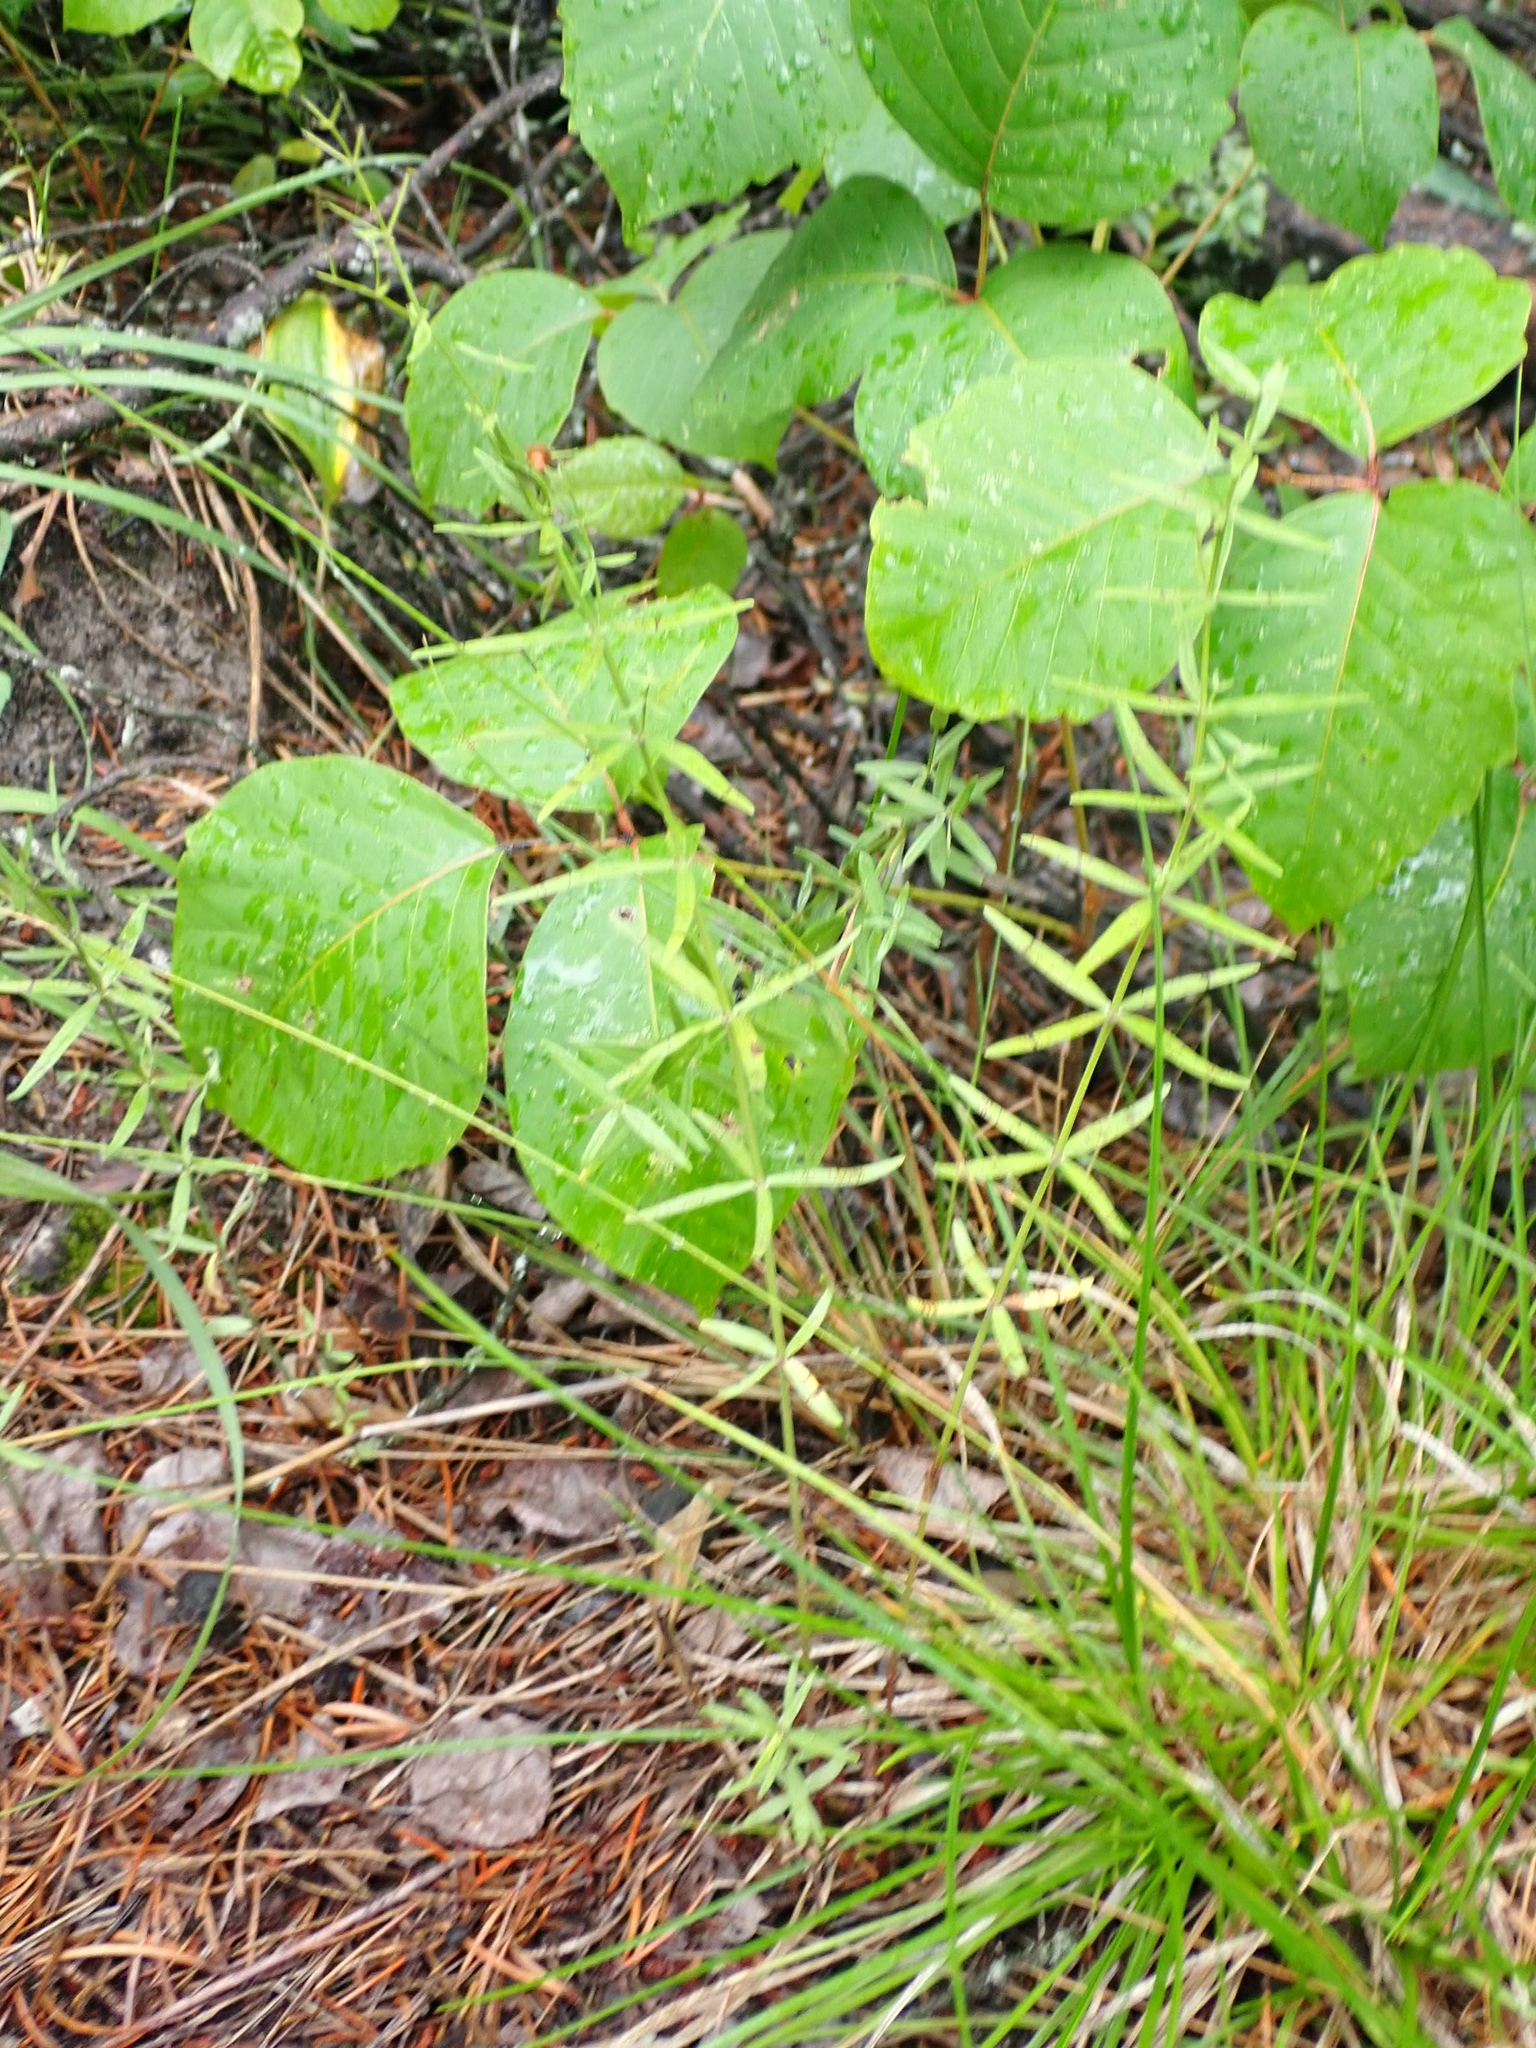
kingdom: Plantae
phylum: Tracheophyta
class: Magnoliopsida
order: Gentianales
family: Rubiaceae
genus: Galium
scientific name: Galium boreale
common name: Northern bedstraw
